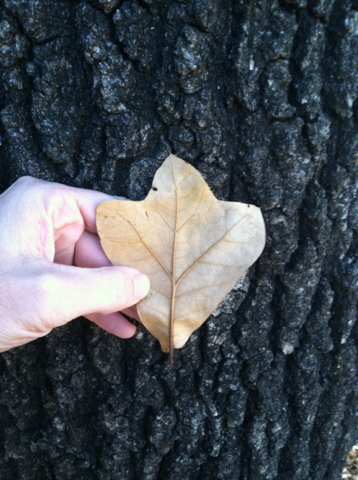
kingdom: Plantae
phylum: Tracheophyta
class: Magnoliopsida
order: Fagales
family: Fagaceae
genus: Quercus
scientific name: Quercus marilandica
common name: Blackjack oak
